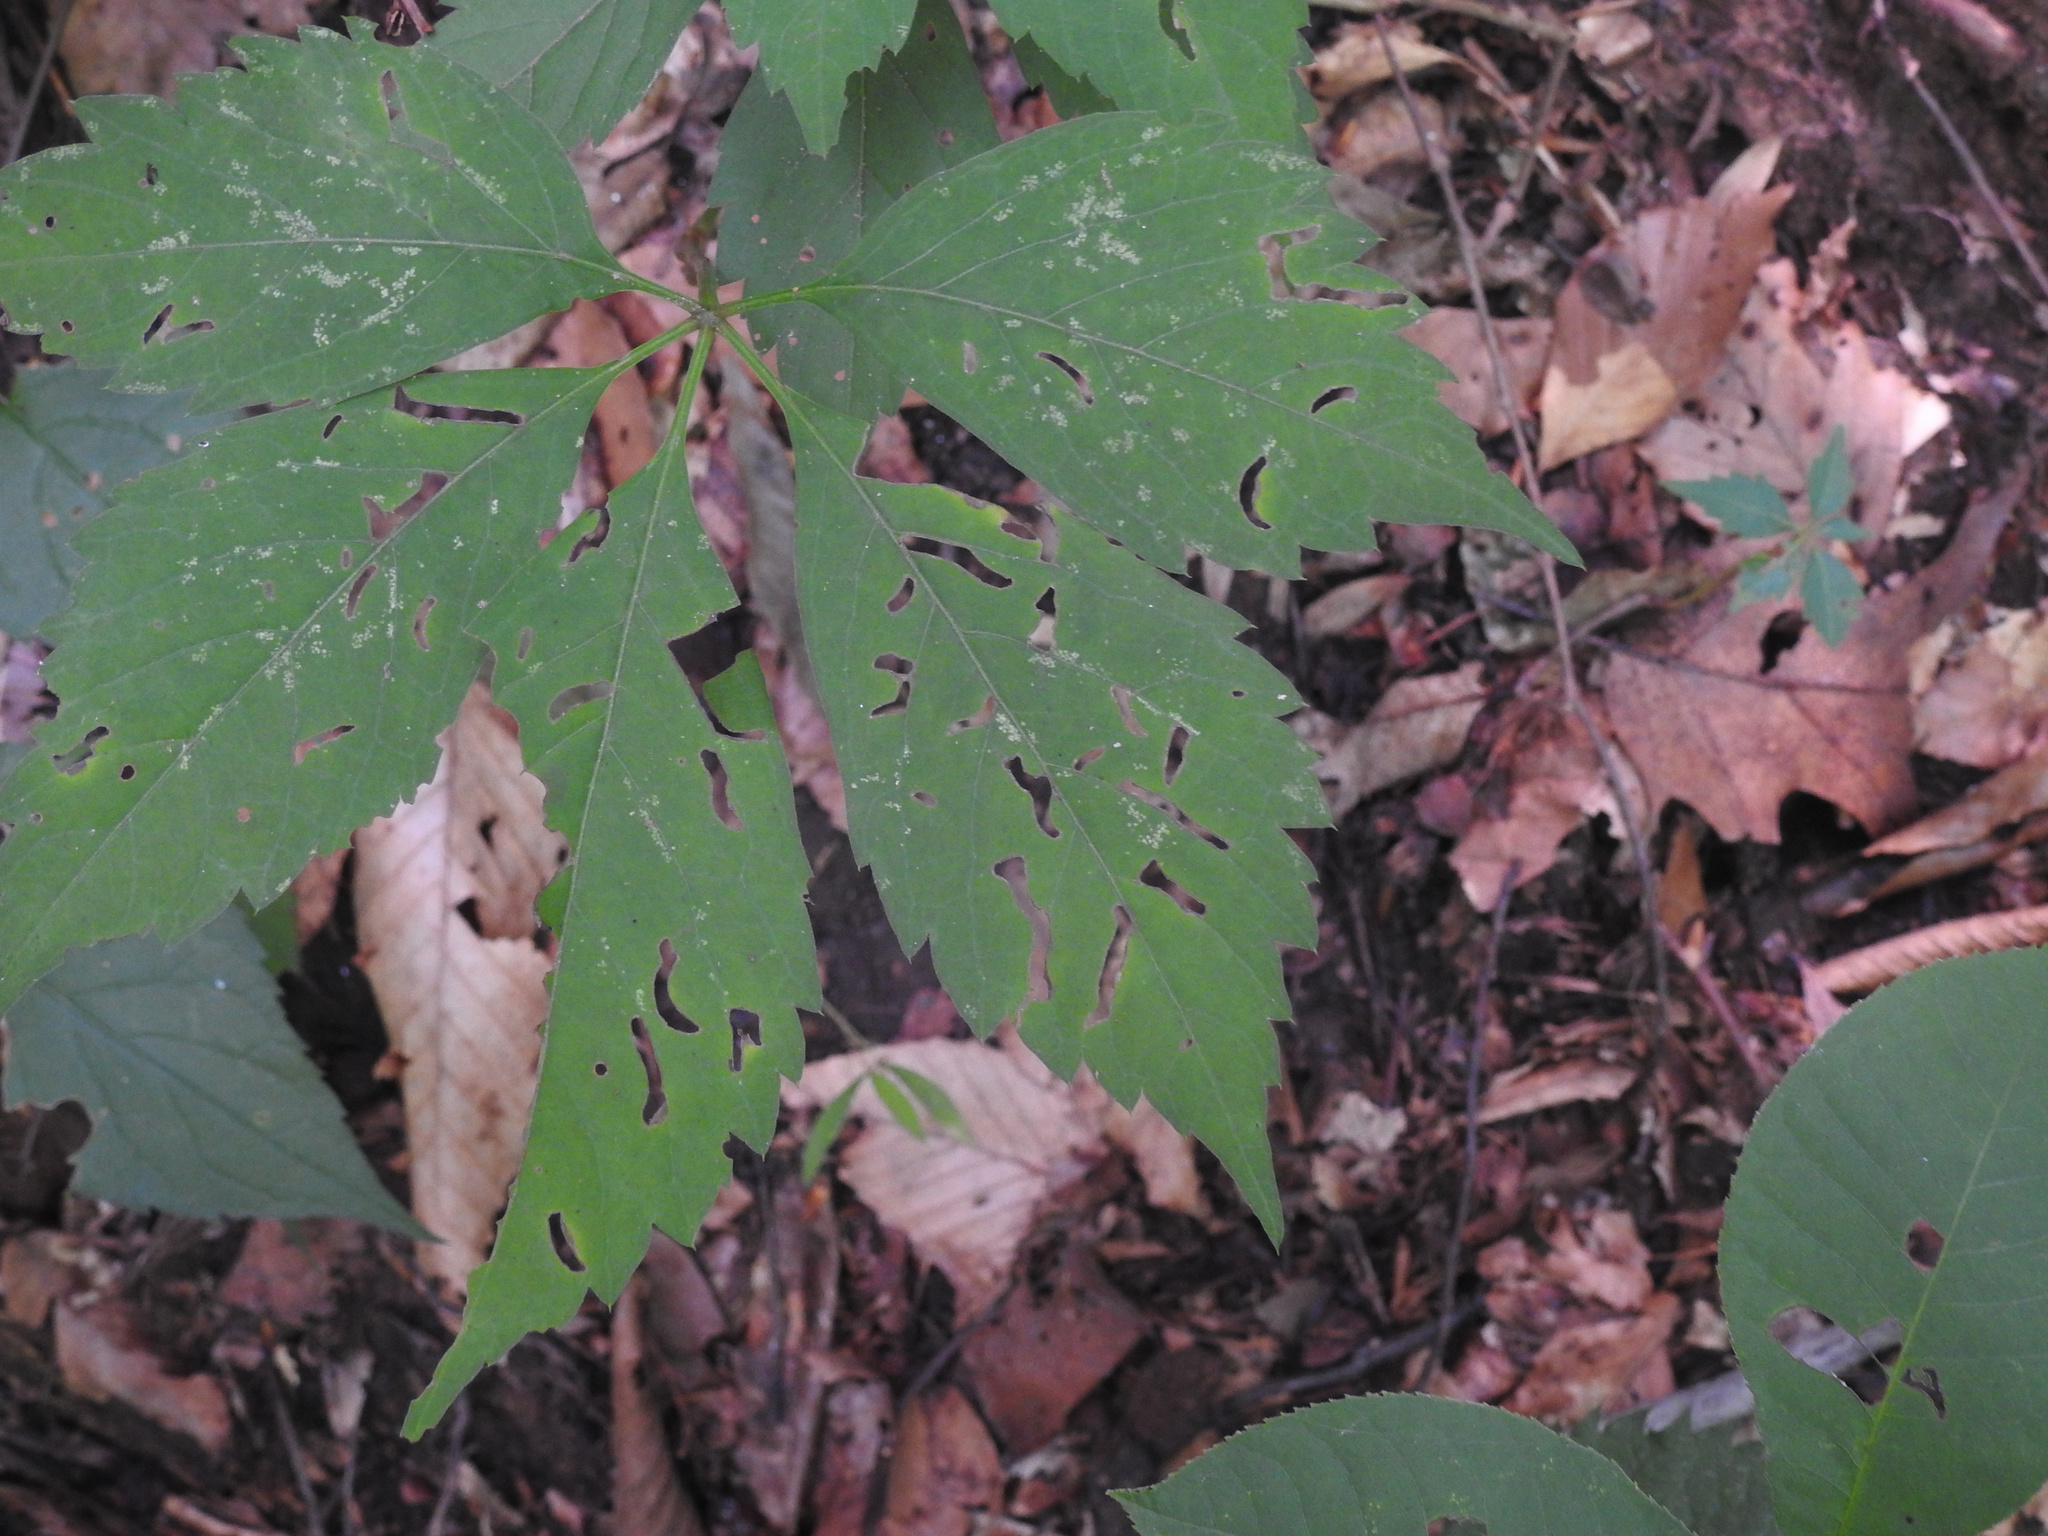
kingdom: Plantae
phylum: Tracheophyta
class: Magnoliopsida
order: Vitales
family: Vitaceae
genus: Parthenocissus
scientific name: Parthenocissus quinquefolia
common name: Virginia-creeper
